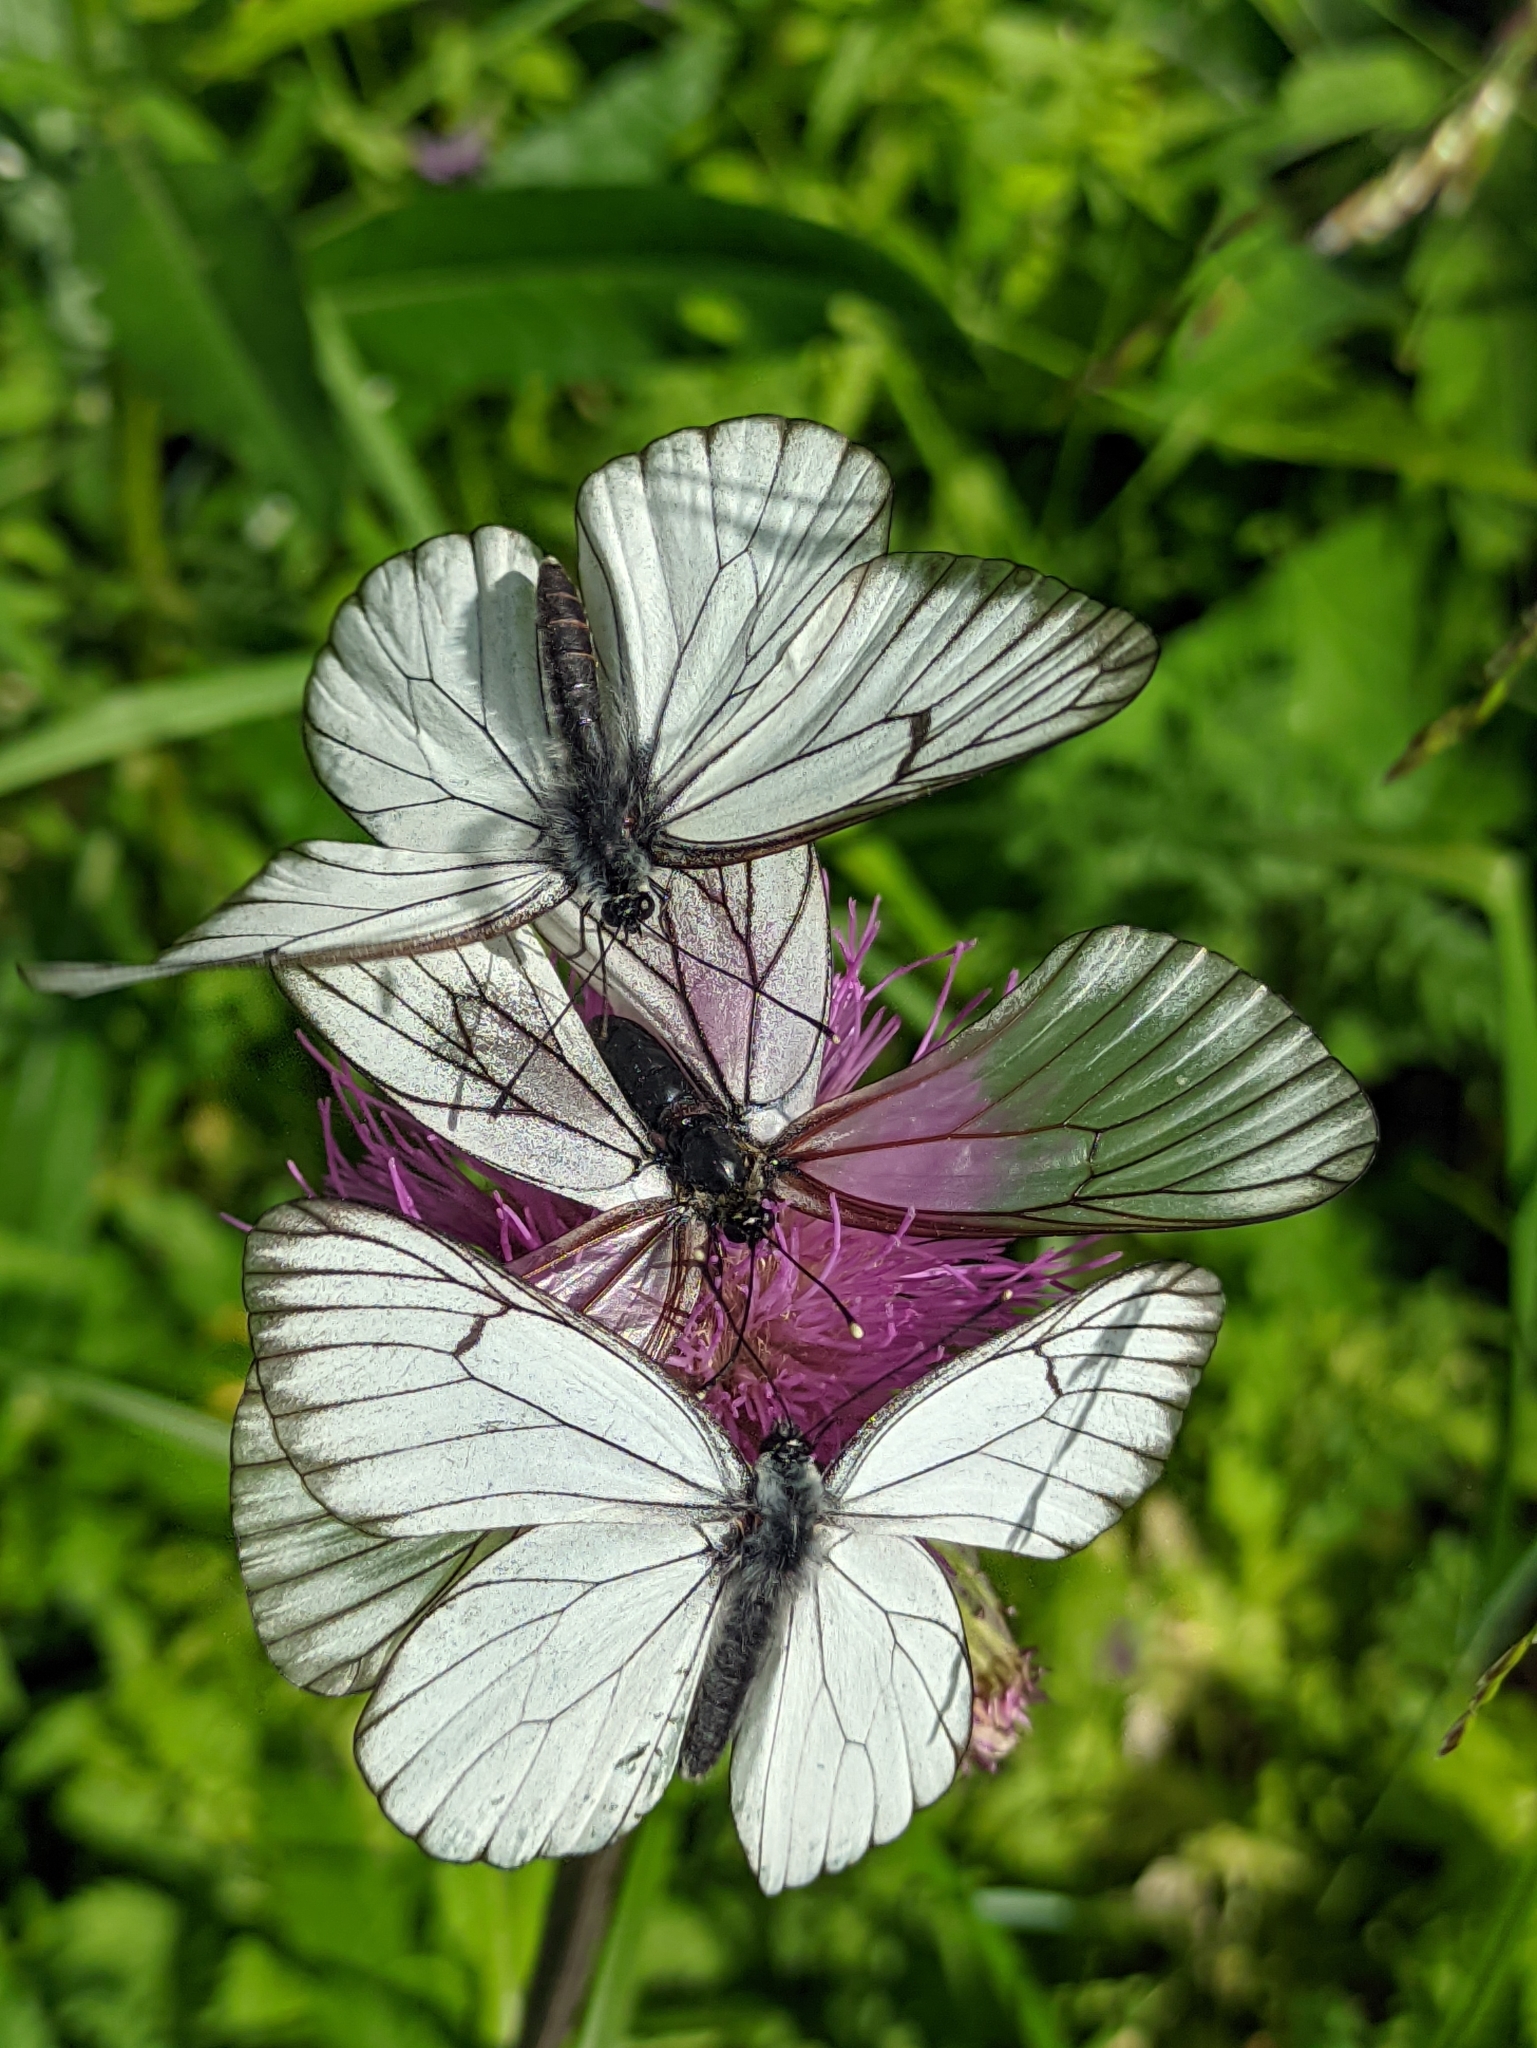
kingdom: Animalia
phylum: Arthropoda
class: Insecta
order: Lepidoptera
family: Pieridae
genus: Aporia
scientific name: Aporia crataegi
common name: Black-veined white
